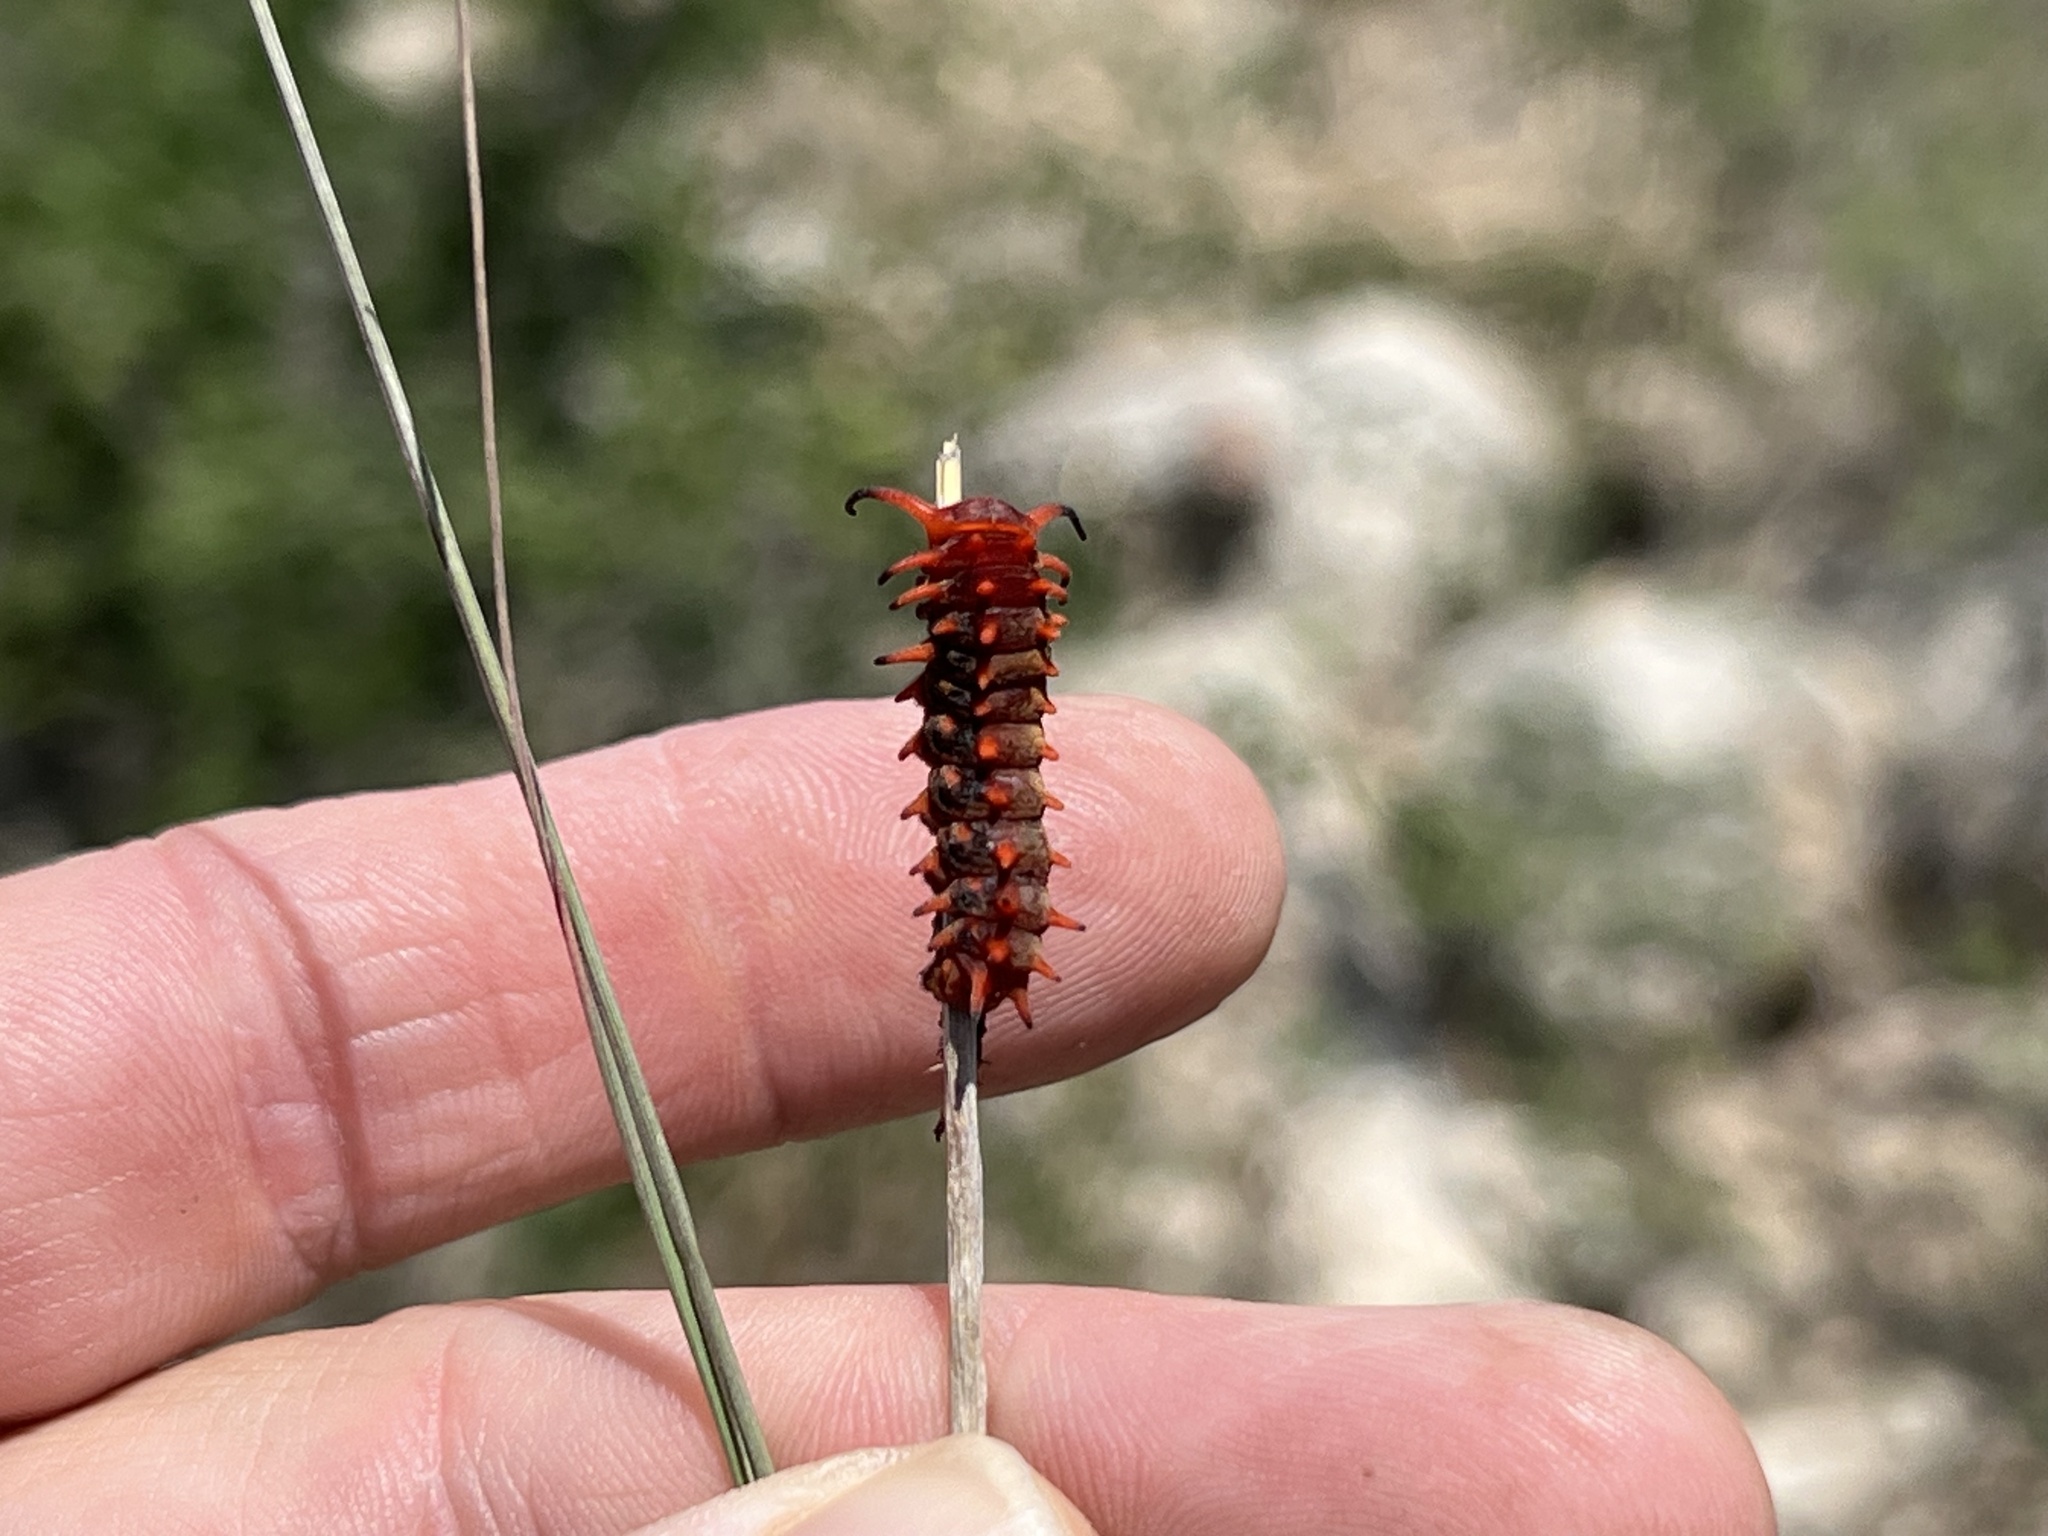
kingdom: Animalia
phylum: Arthropoda
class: Insecta
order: Lepidoptera
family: Papilionidae
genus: Battus
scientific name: Battus philenor
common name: Pipevine swallowtail
